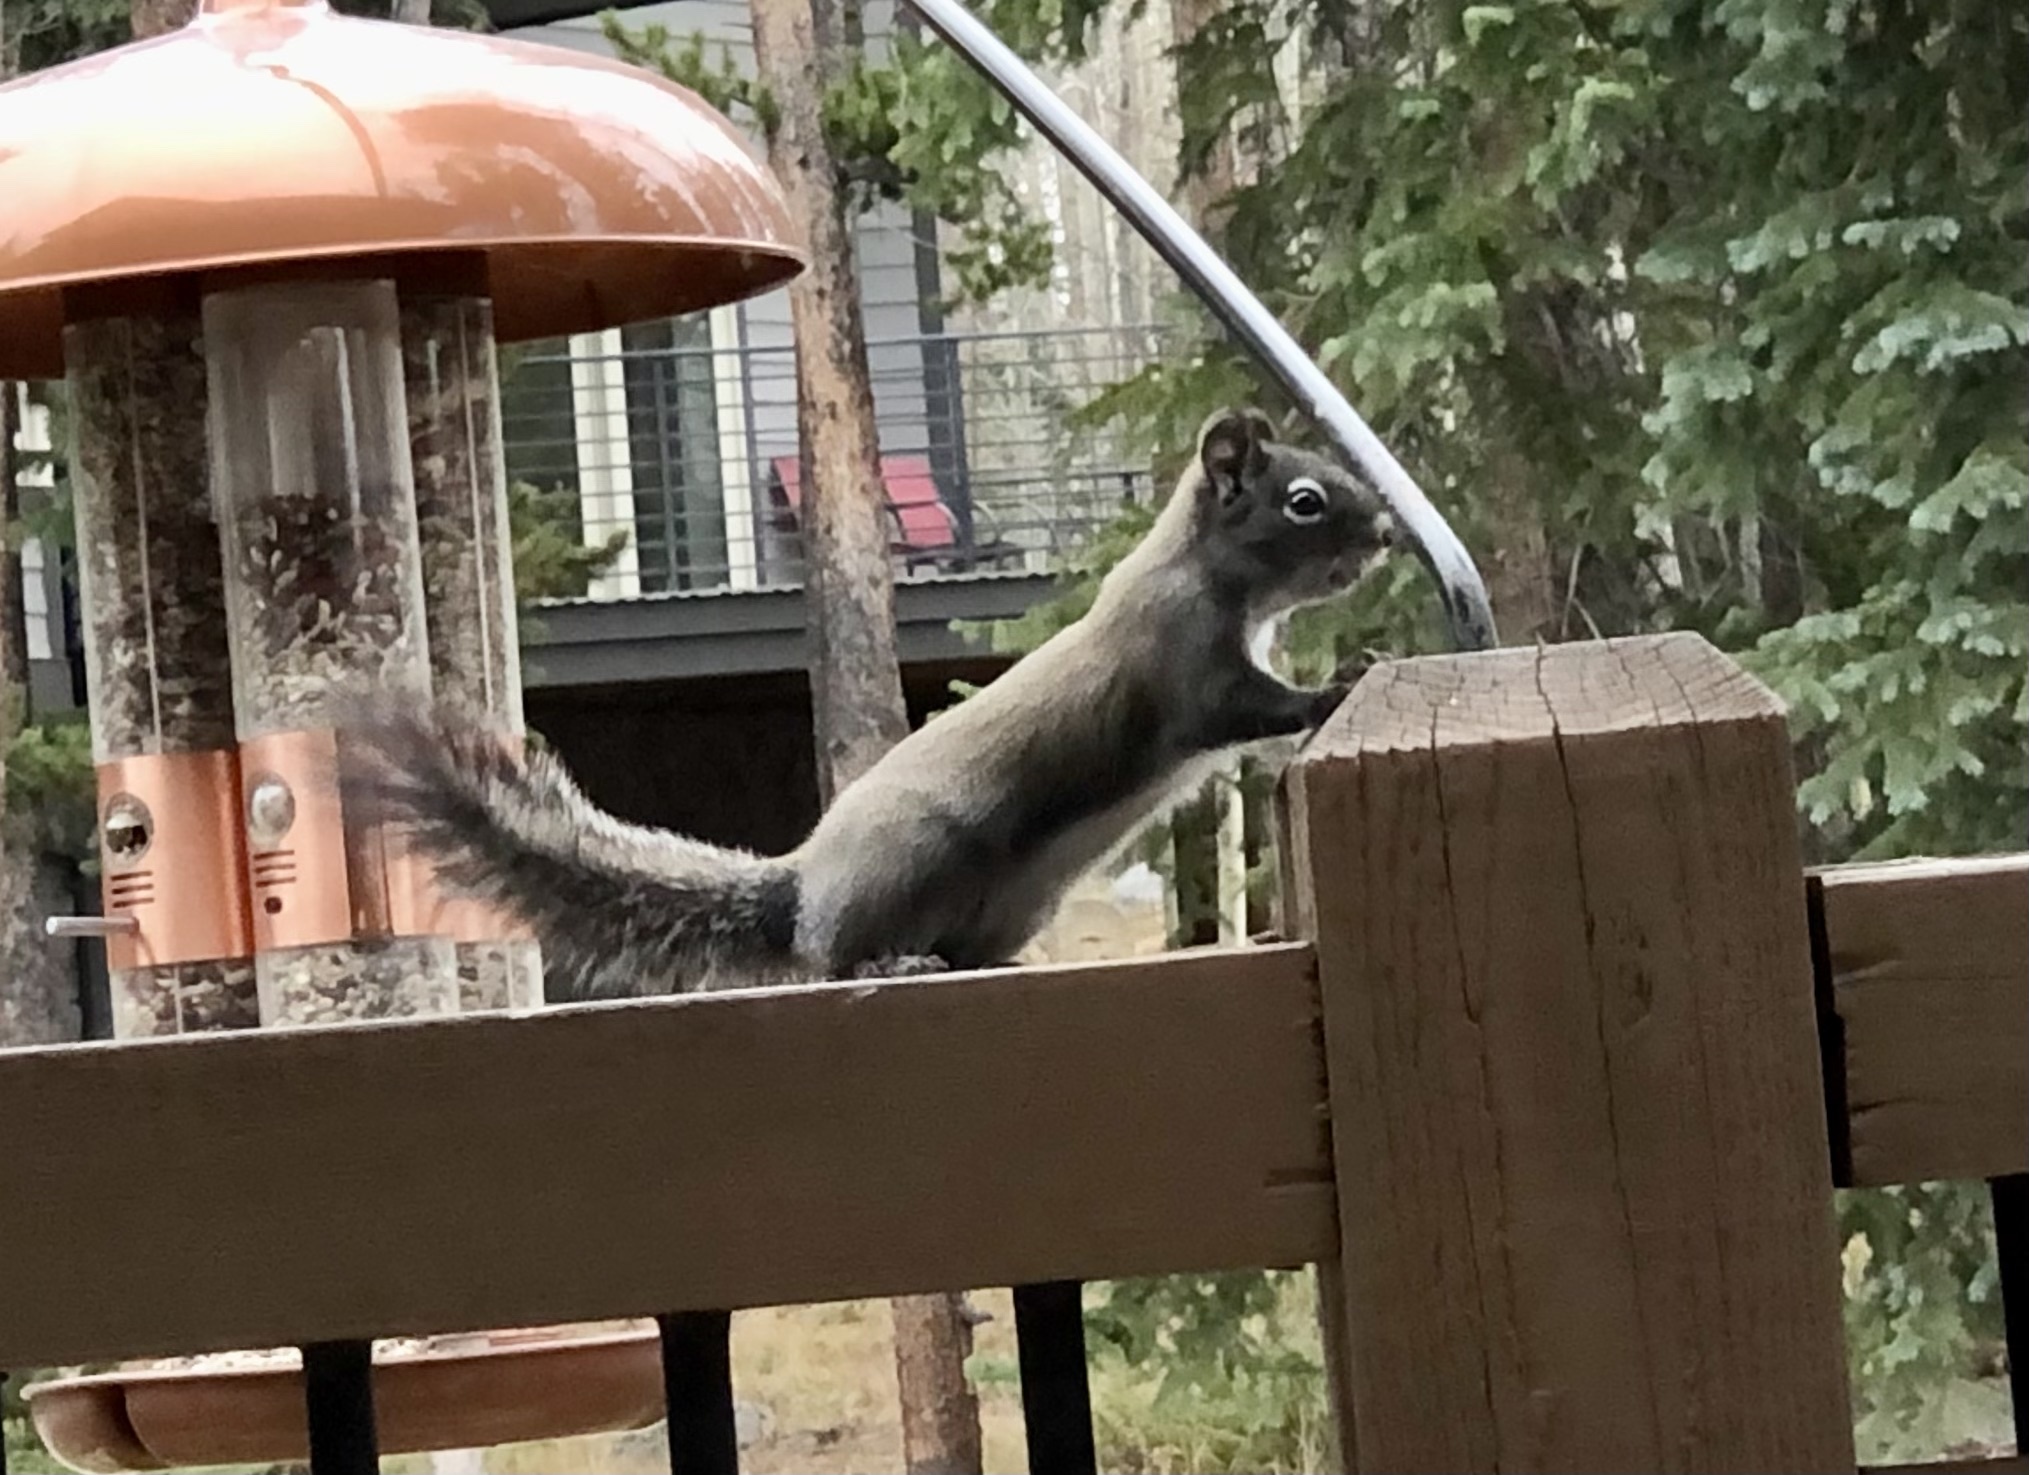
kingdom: Animalia
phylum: Chordata
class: Mammalia
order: Rodentia
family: Sciuridae
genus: Tamiasciurus
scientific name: Tamiasciurus hudsonicus
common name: Red squirrel
